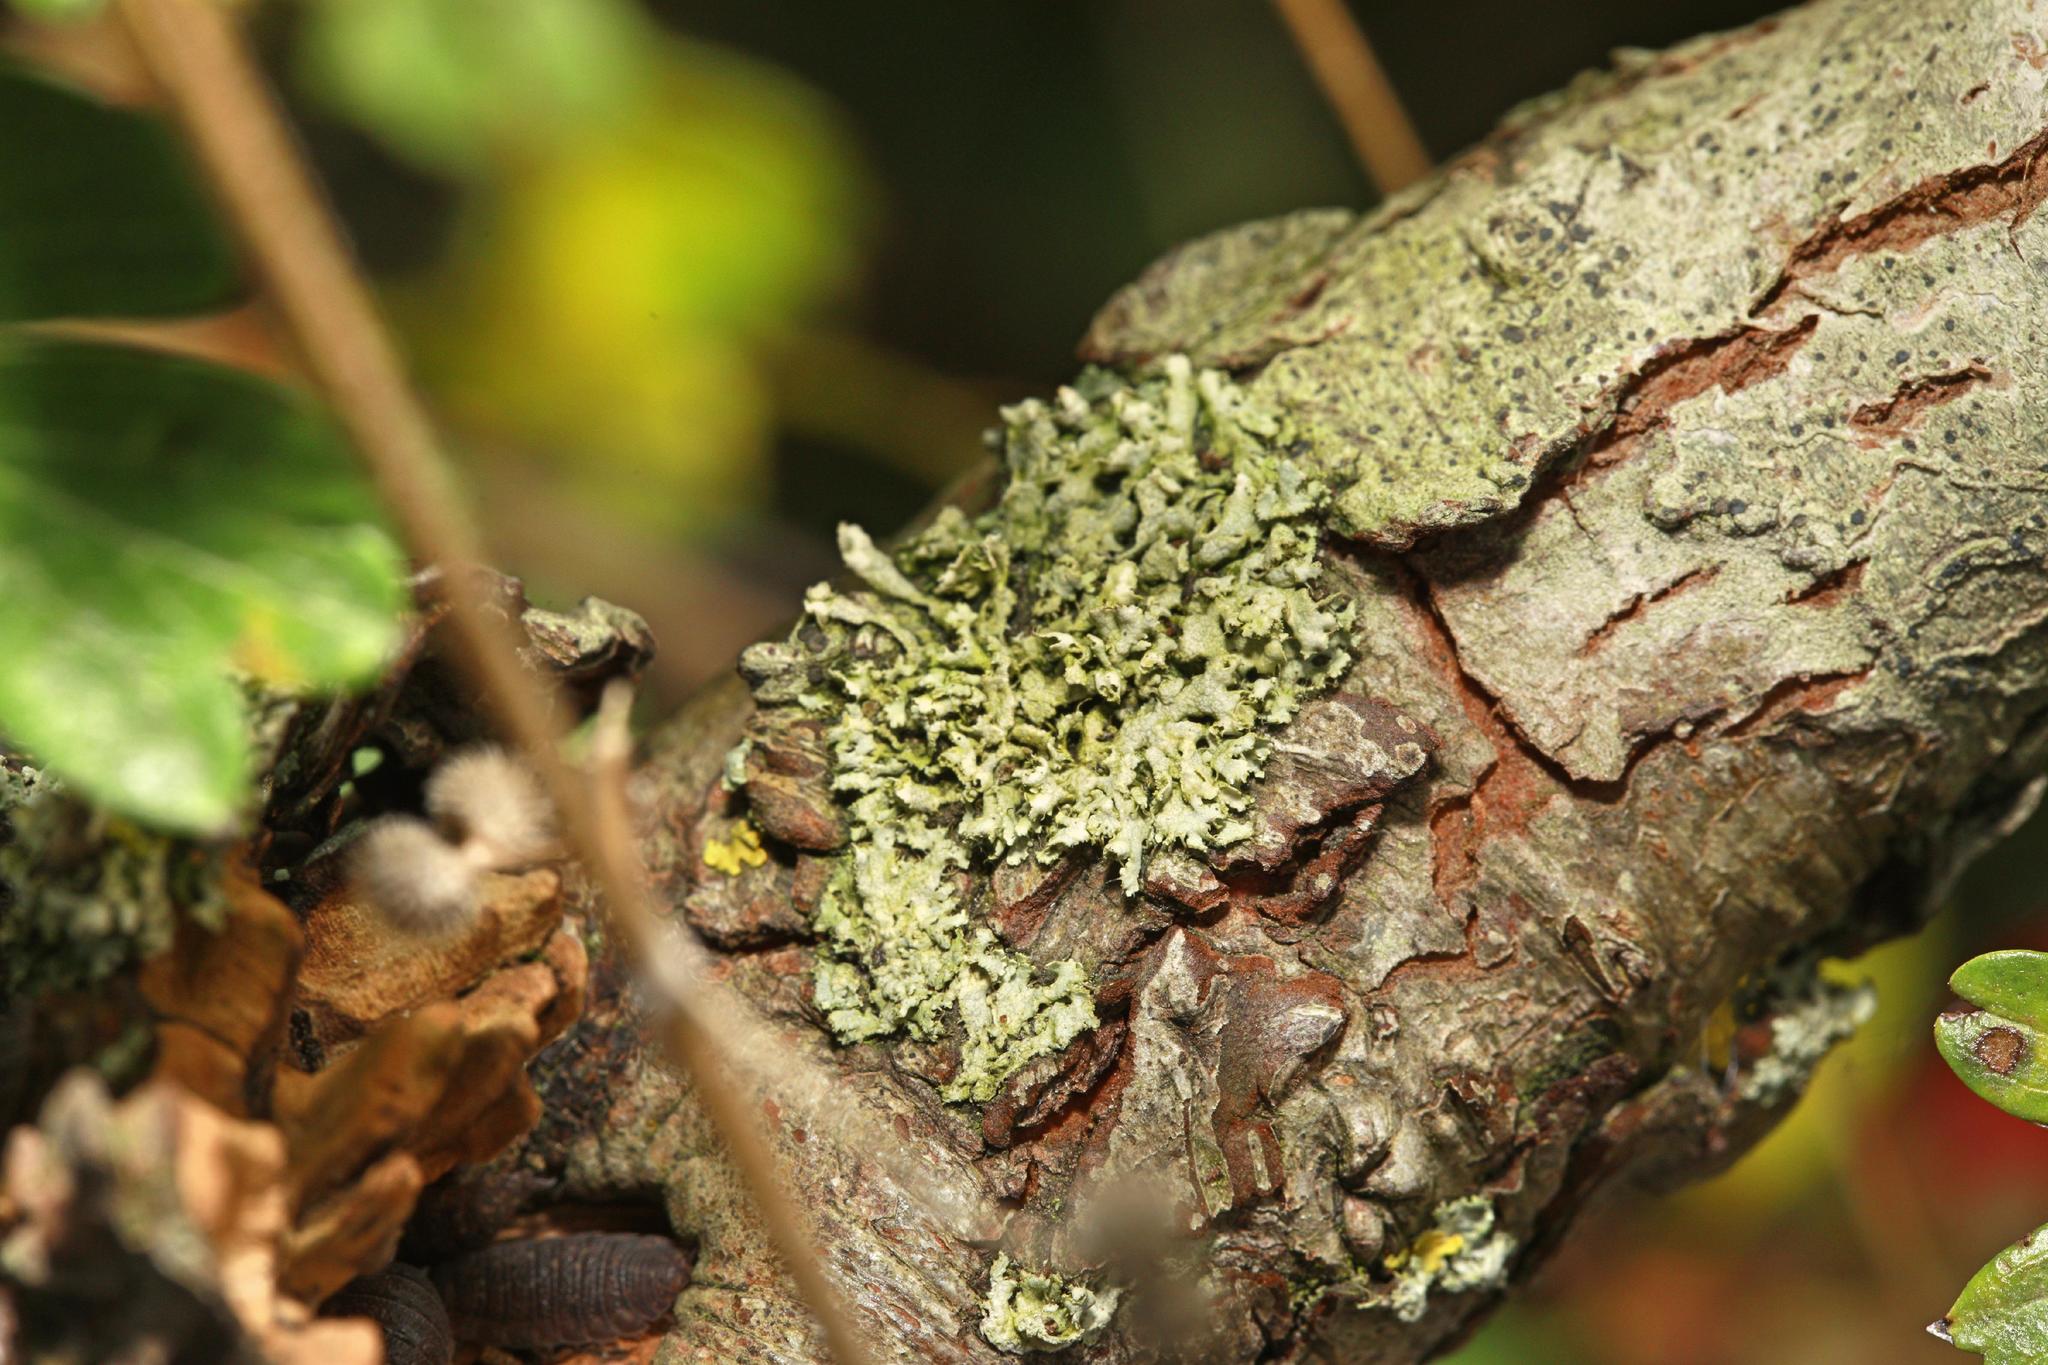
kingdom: Fungi
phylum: Ascomycota
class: Lecanoromycetes
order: Caliciales
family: Physciaceae
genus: Physcia
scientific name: Physcia adscendens
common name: Hooded rosette lichen
